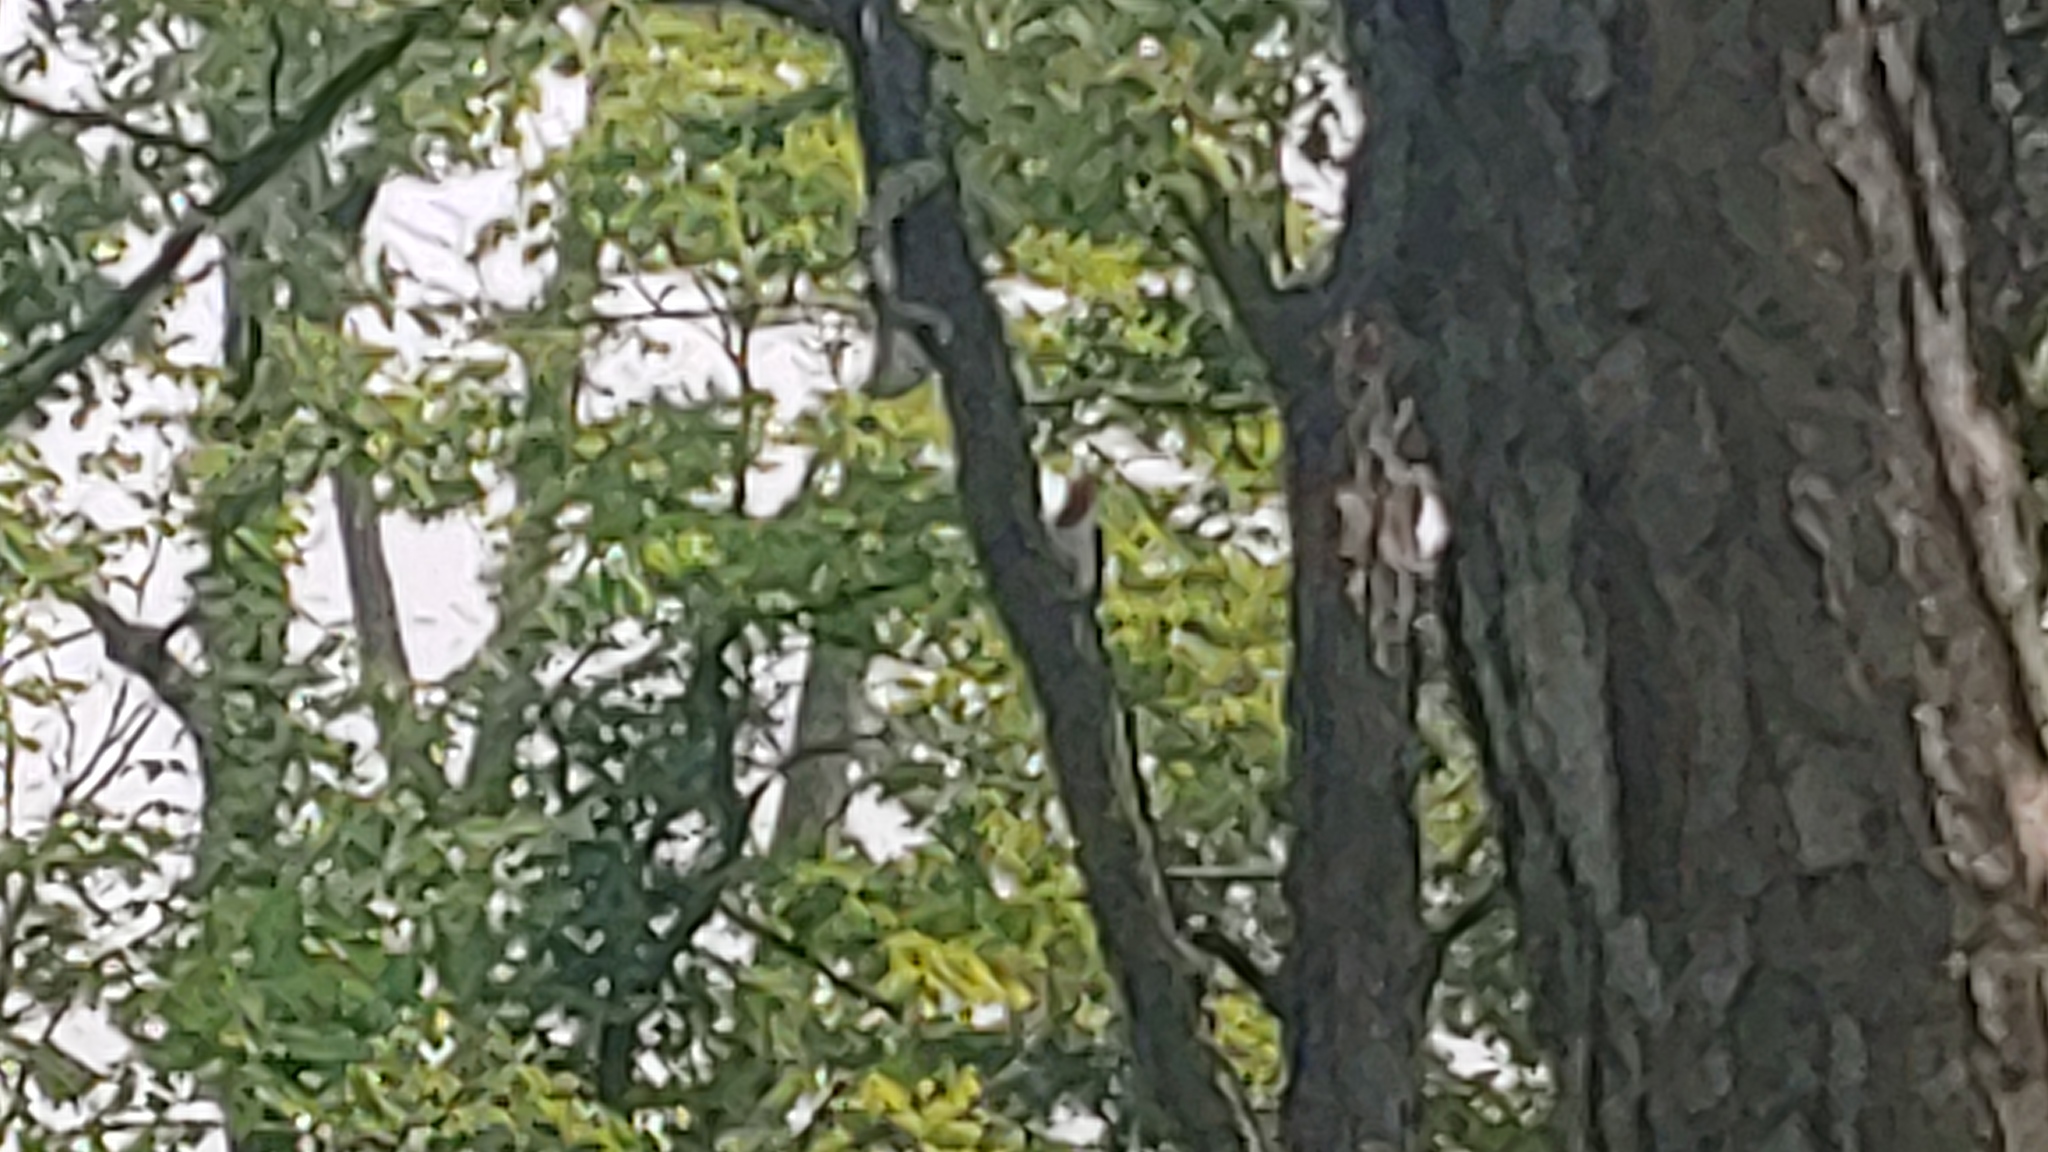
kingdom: Animalia
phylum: Chordata
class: Aves
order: Piciformes
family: Picidae
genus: Melanerpes
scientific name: Melanerpes erythrocephalus
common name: Red-headed woodpecker
